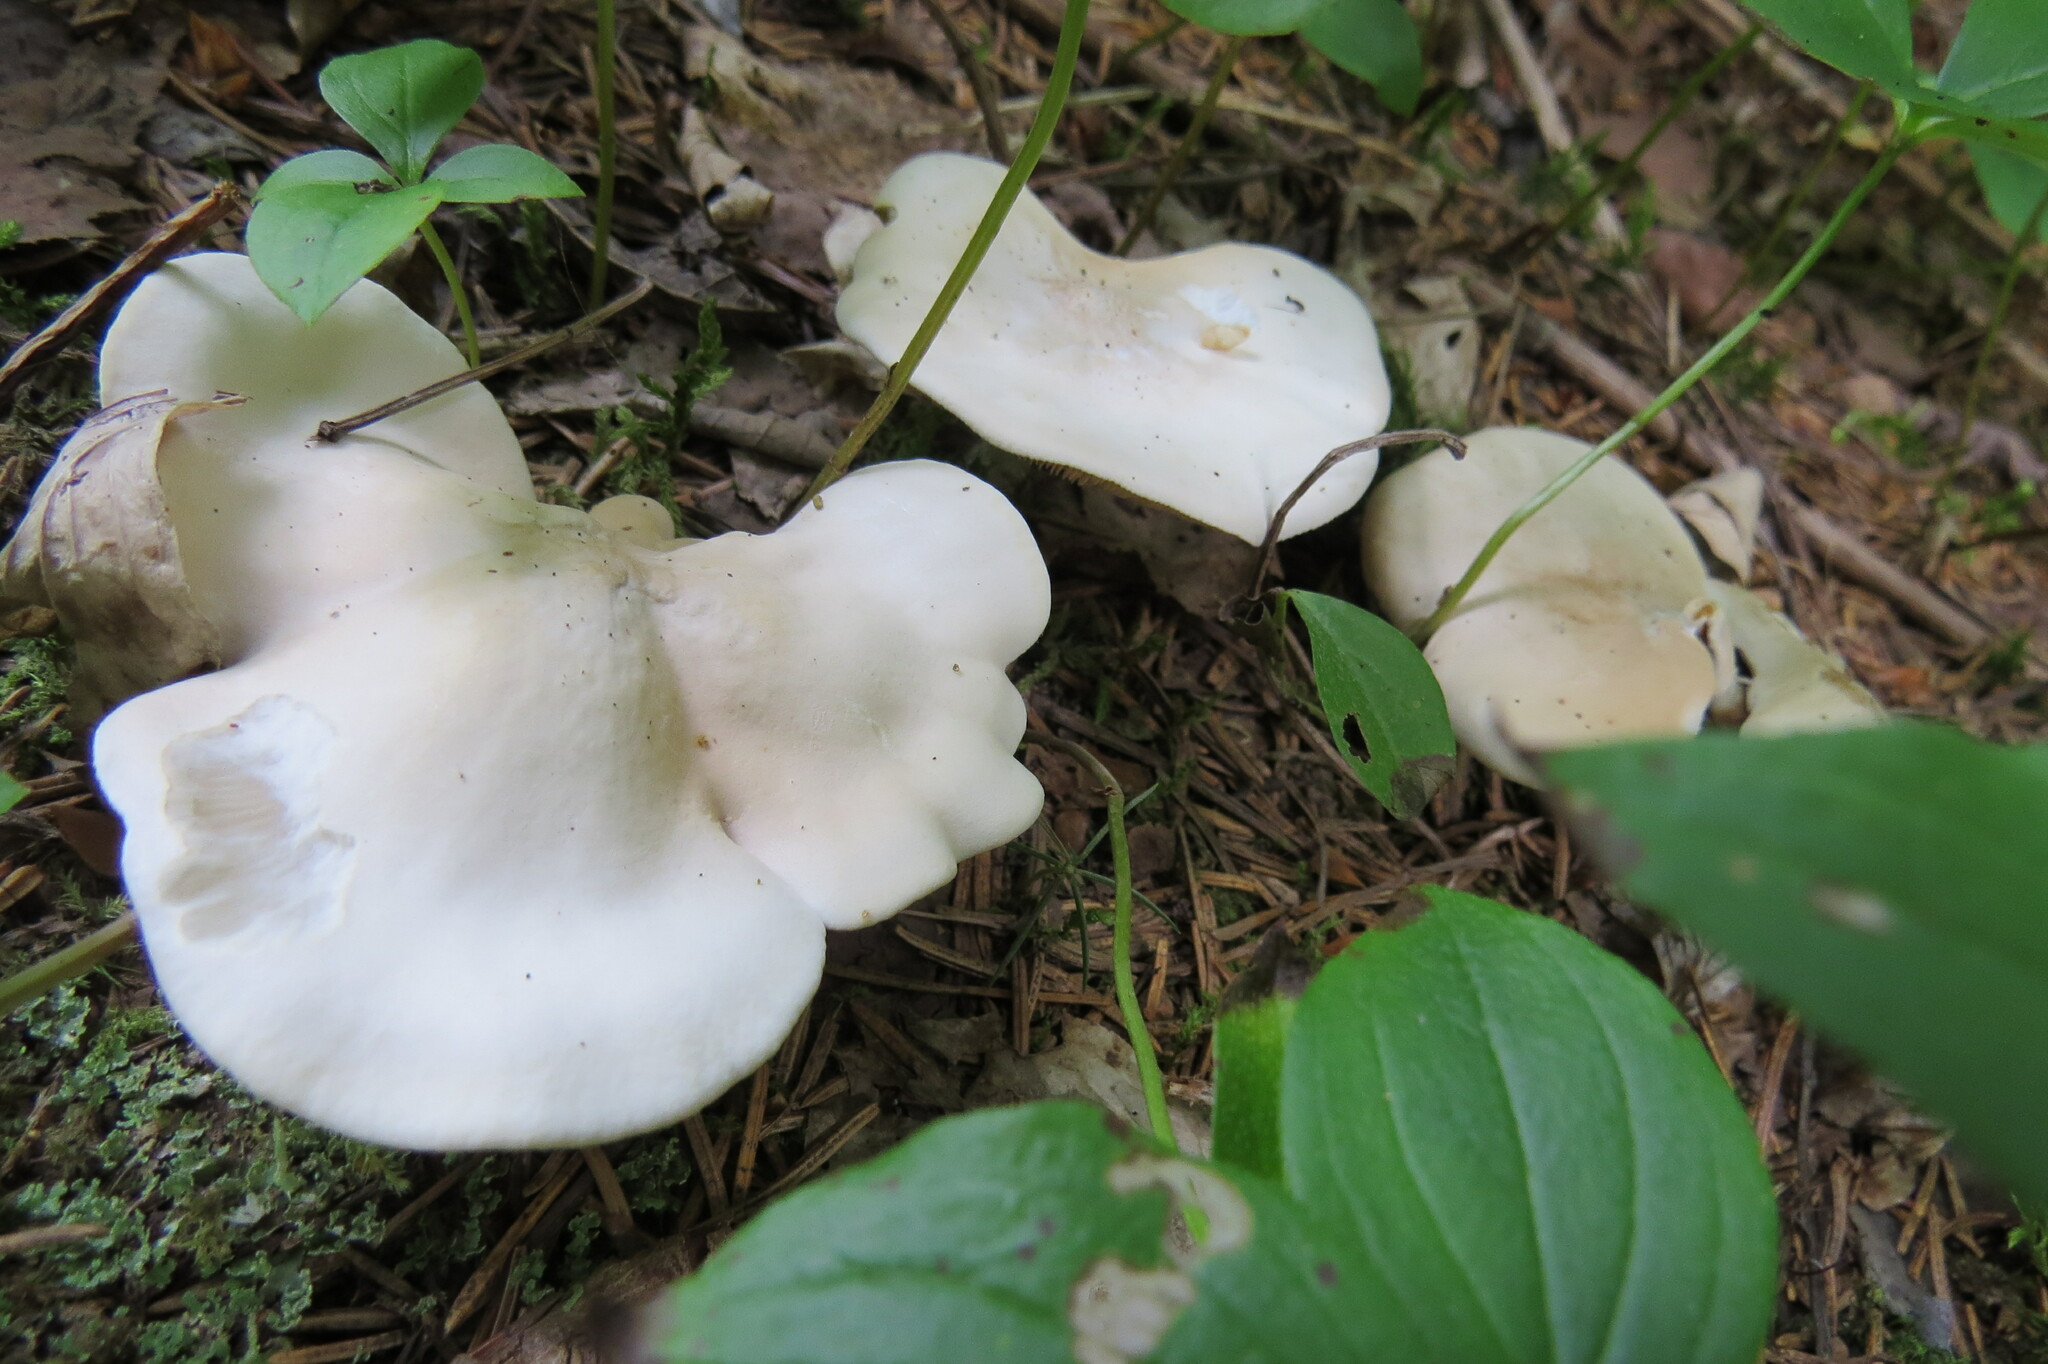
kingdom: Fungi
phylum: Basidiomycota
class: Agaricomycetes
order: Agaricales
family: Entolomataceae
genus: Clitopilus
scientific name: Clitopilus prunulus
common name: The miller
